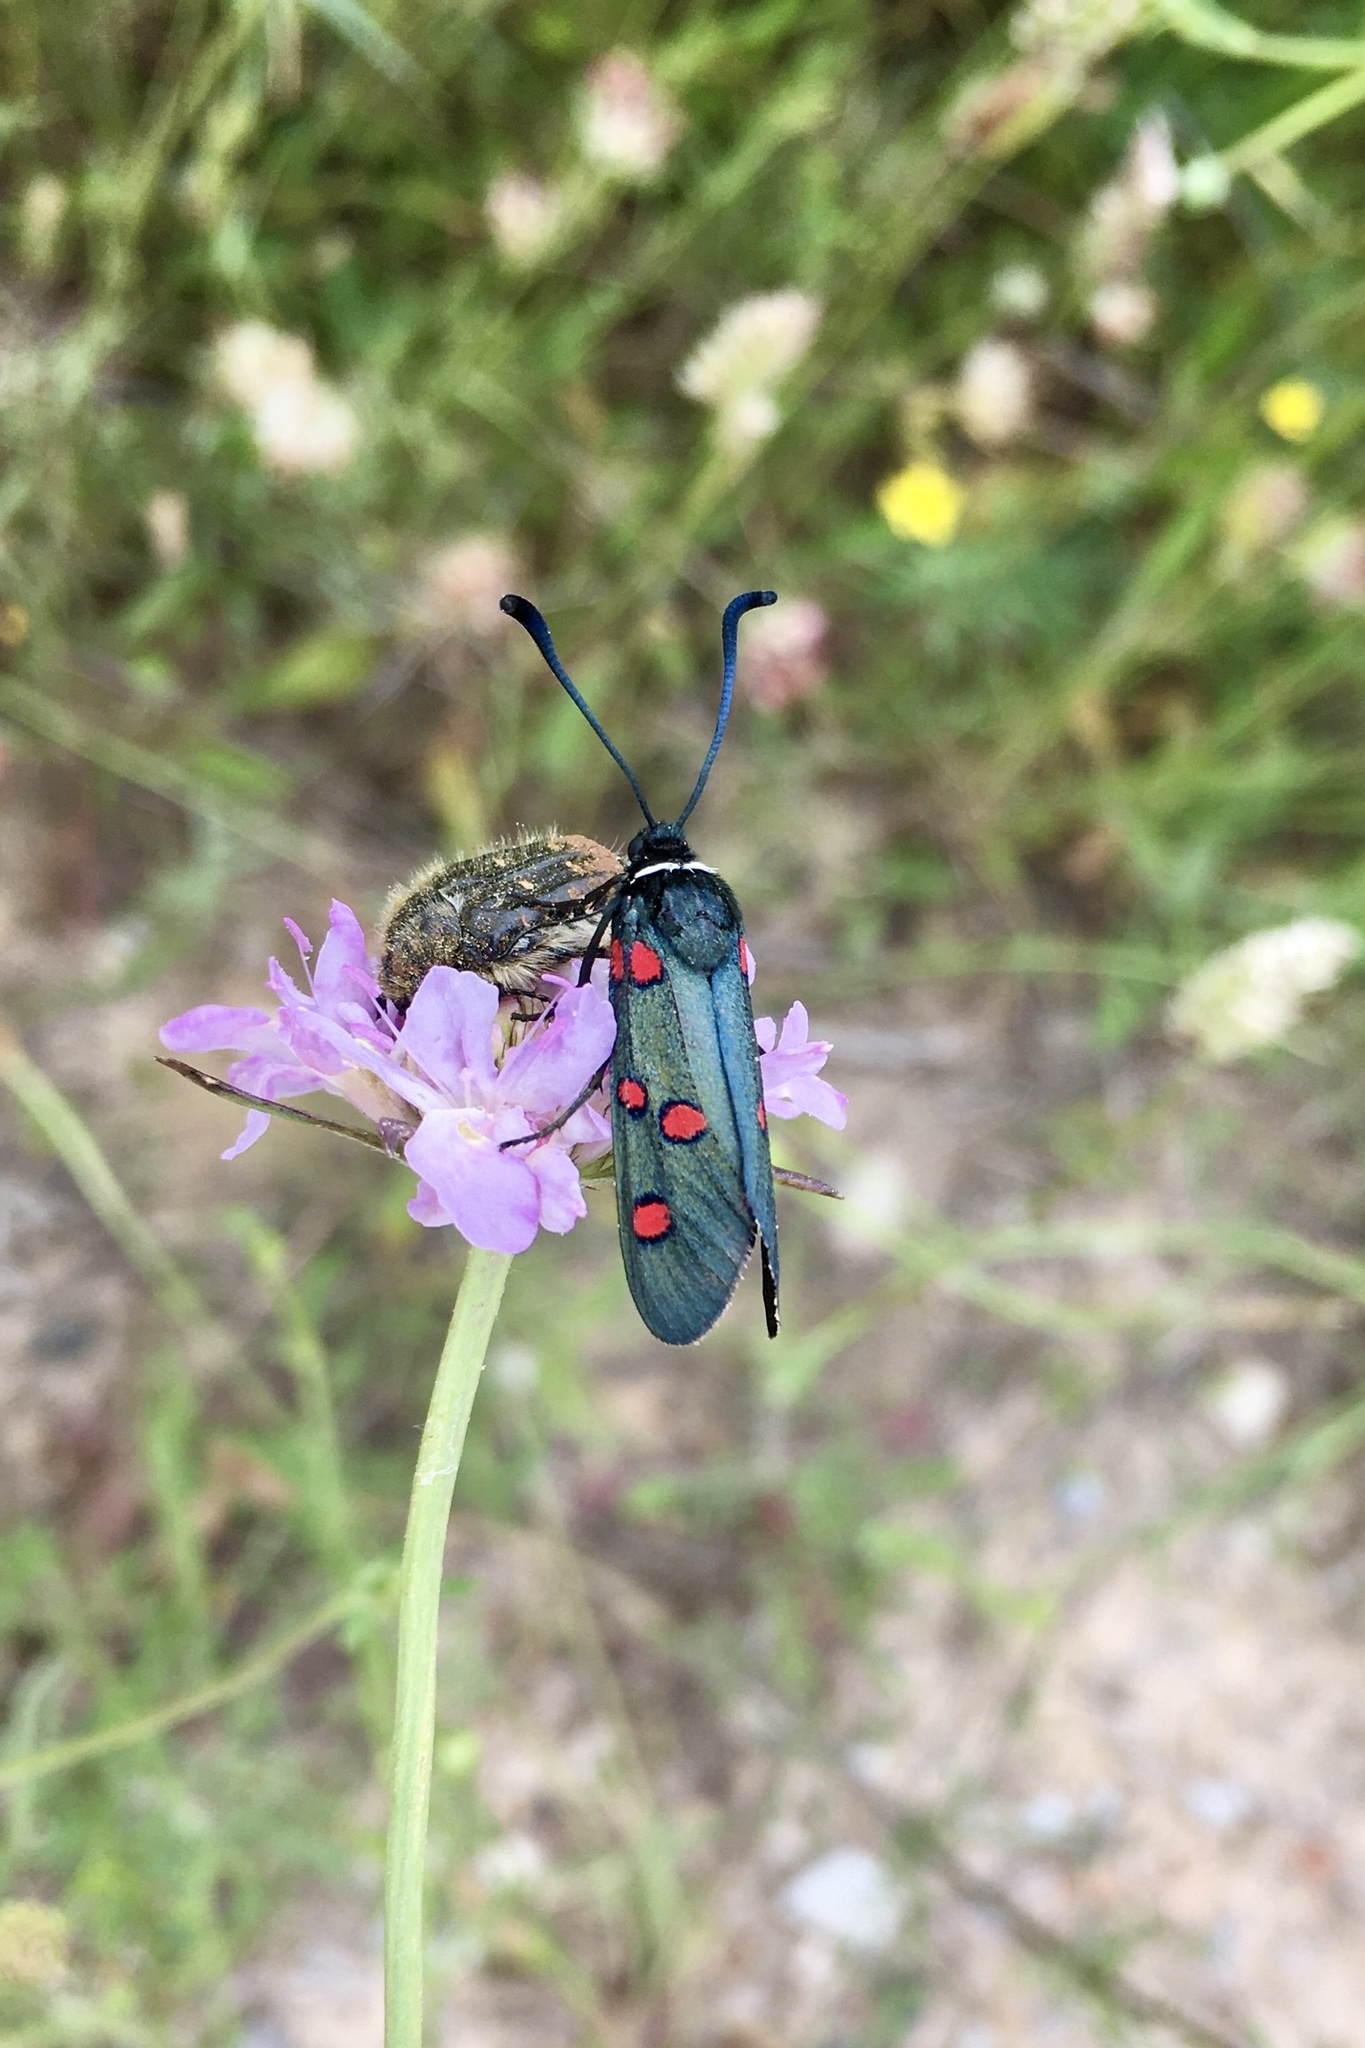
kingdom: Animalia
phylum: Arthropoda
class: Insecta
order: Lepidoptera
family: Zygaenidae
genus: Zygaena
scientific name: Zygaena lavandulae
